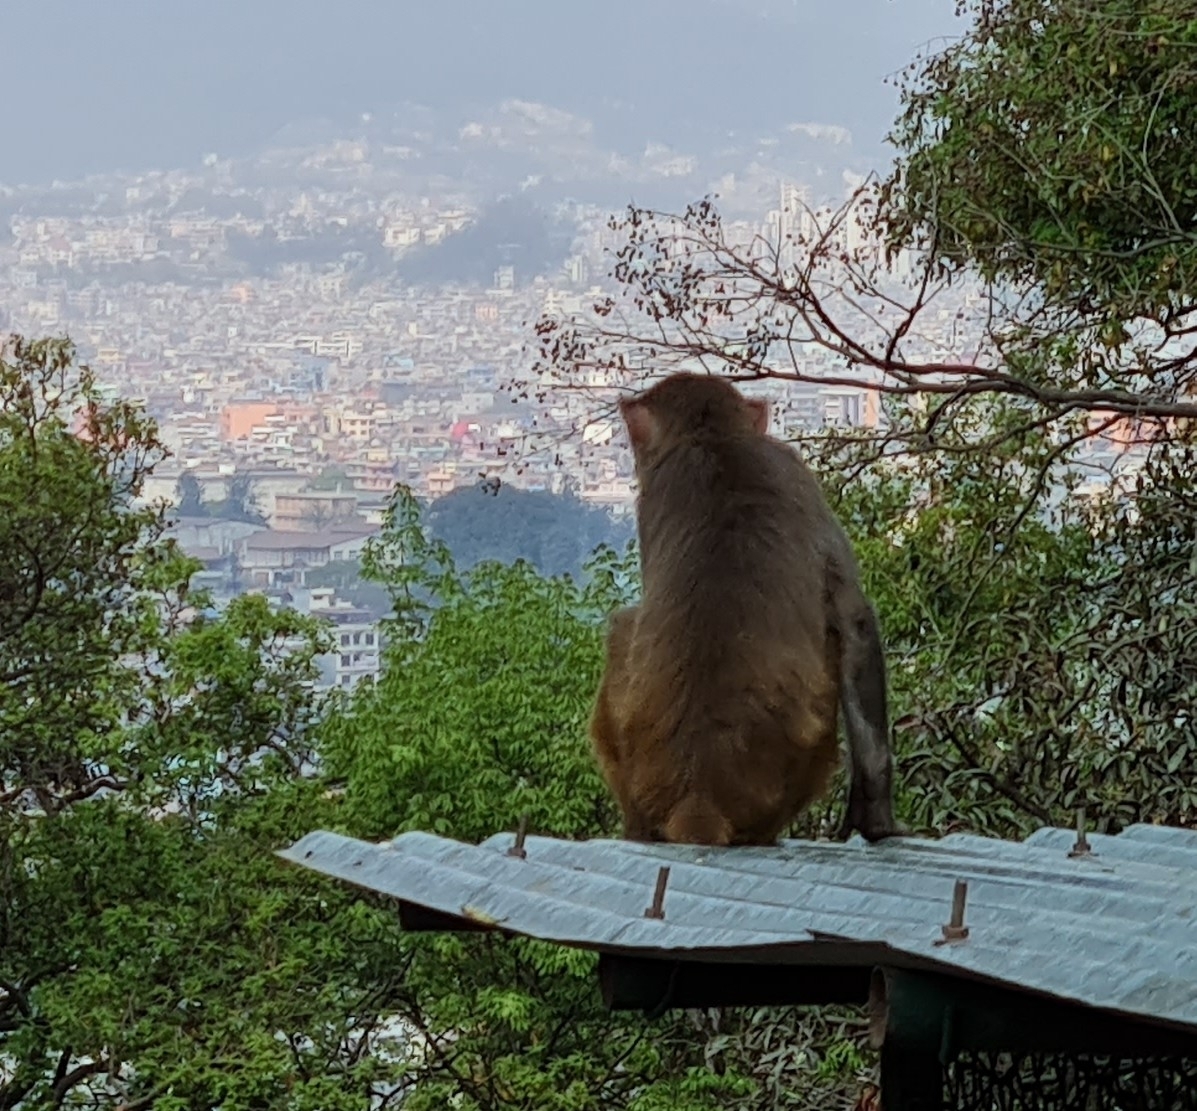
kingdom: Animalia
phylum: Chordata
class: Mammalia
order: Primates
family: Cercopithecidae
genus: Macaca
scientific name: Macaca mulatta
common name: Rhesus monkey
